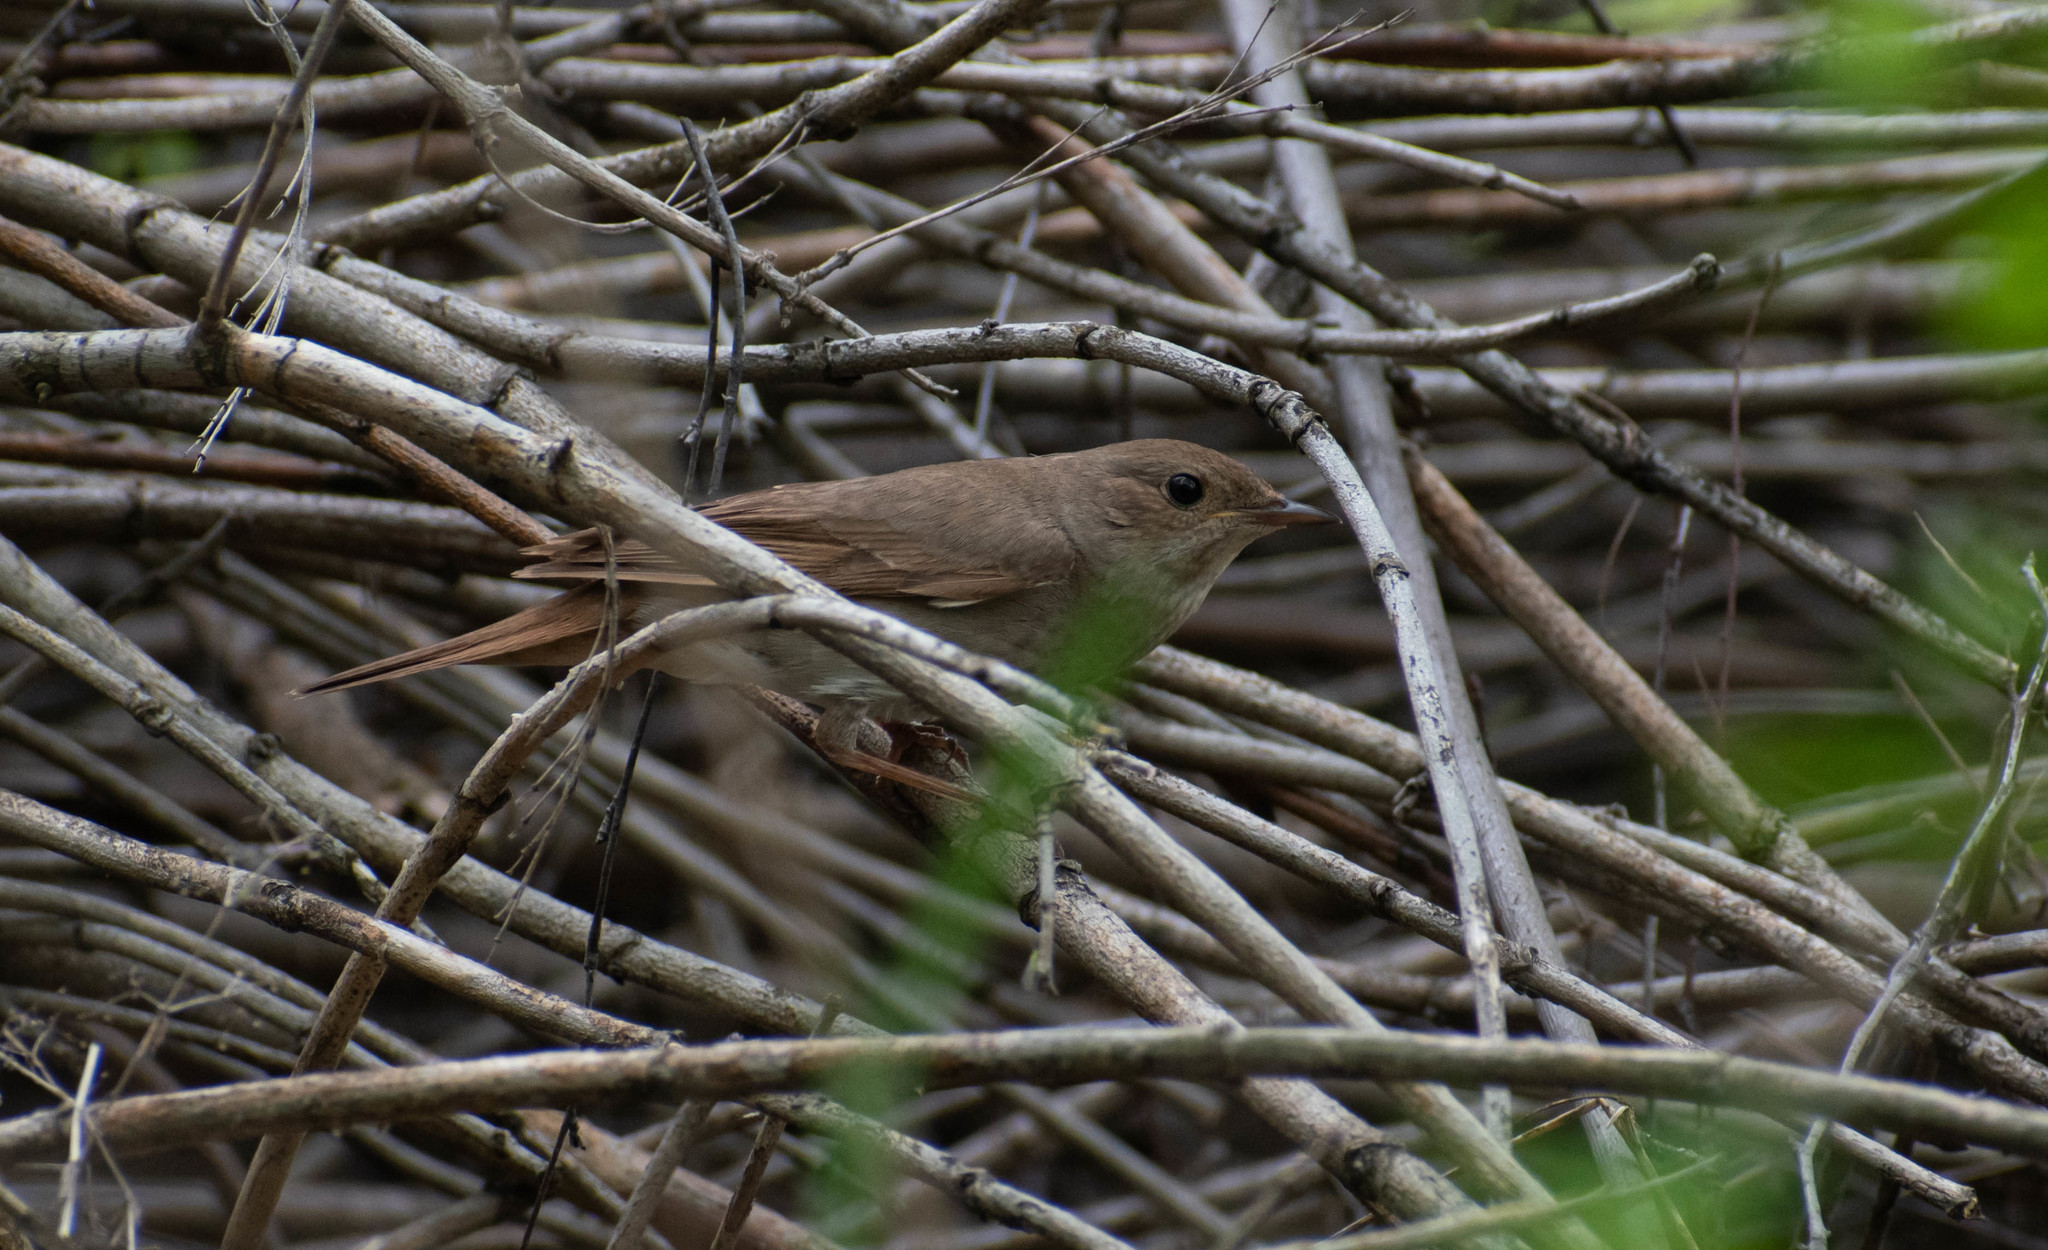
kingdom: Animalia
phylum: Chordata
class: Aves
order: Passeriformes
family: Muscicapidae
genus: Luscinia
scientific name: Luscinia luscinia
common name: Thrush nightingale
